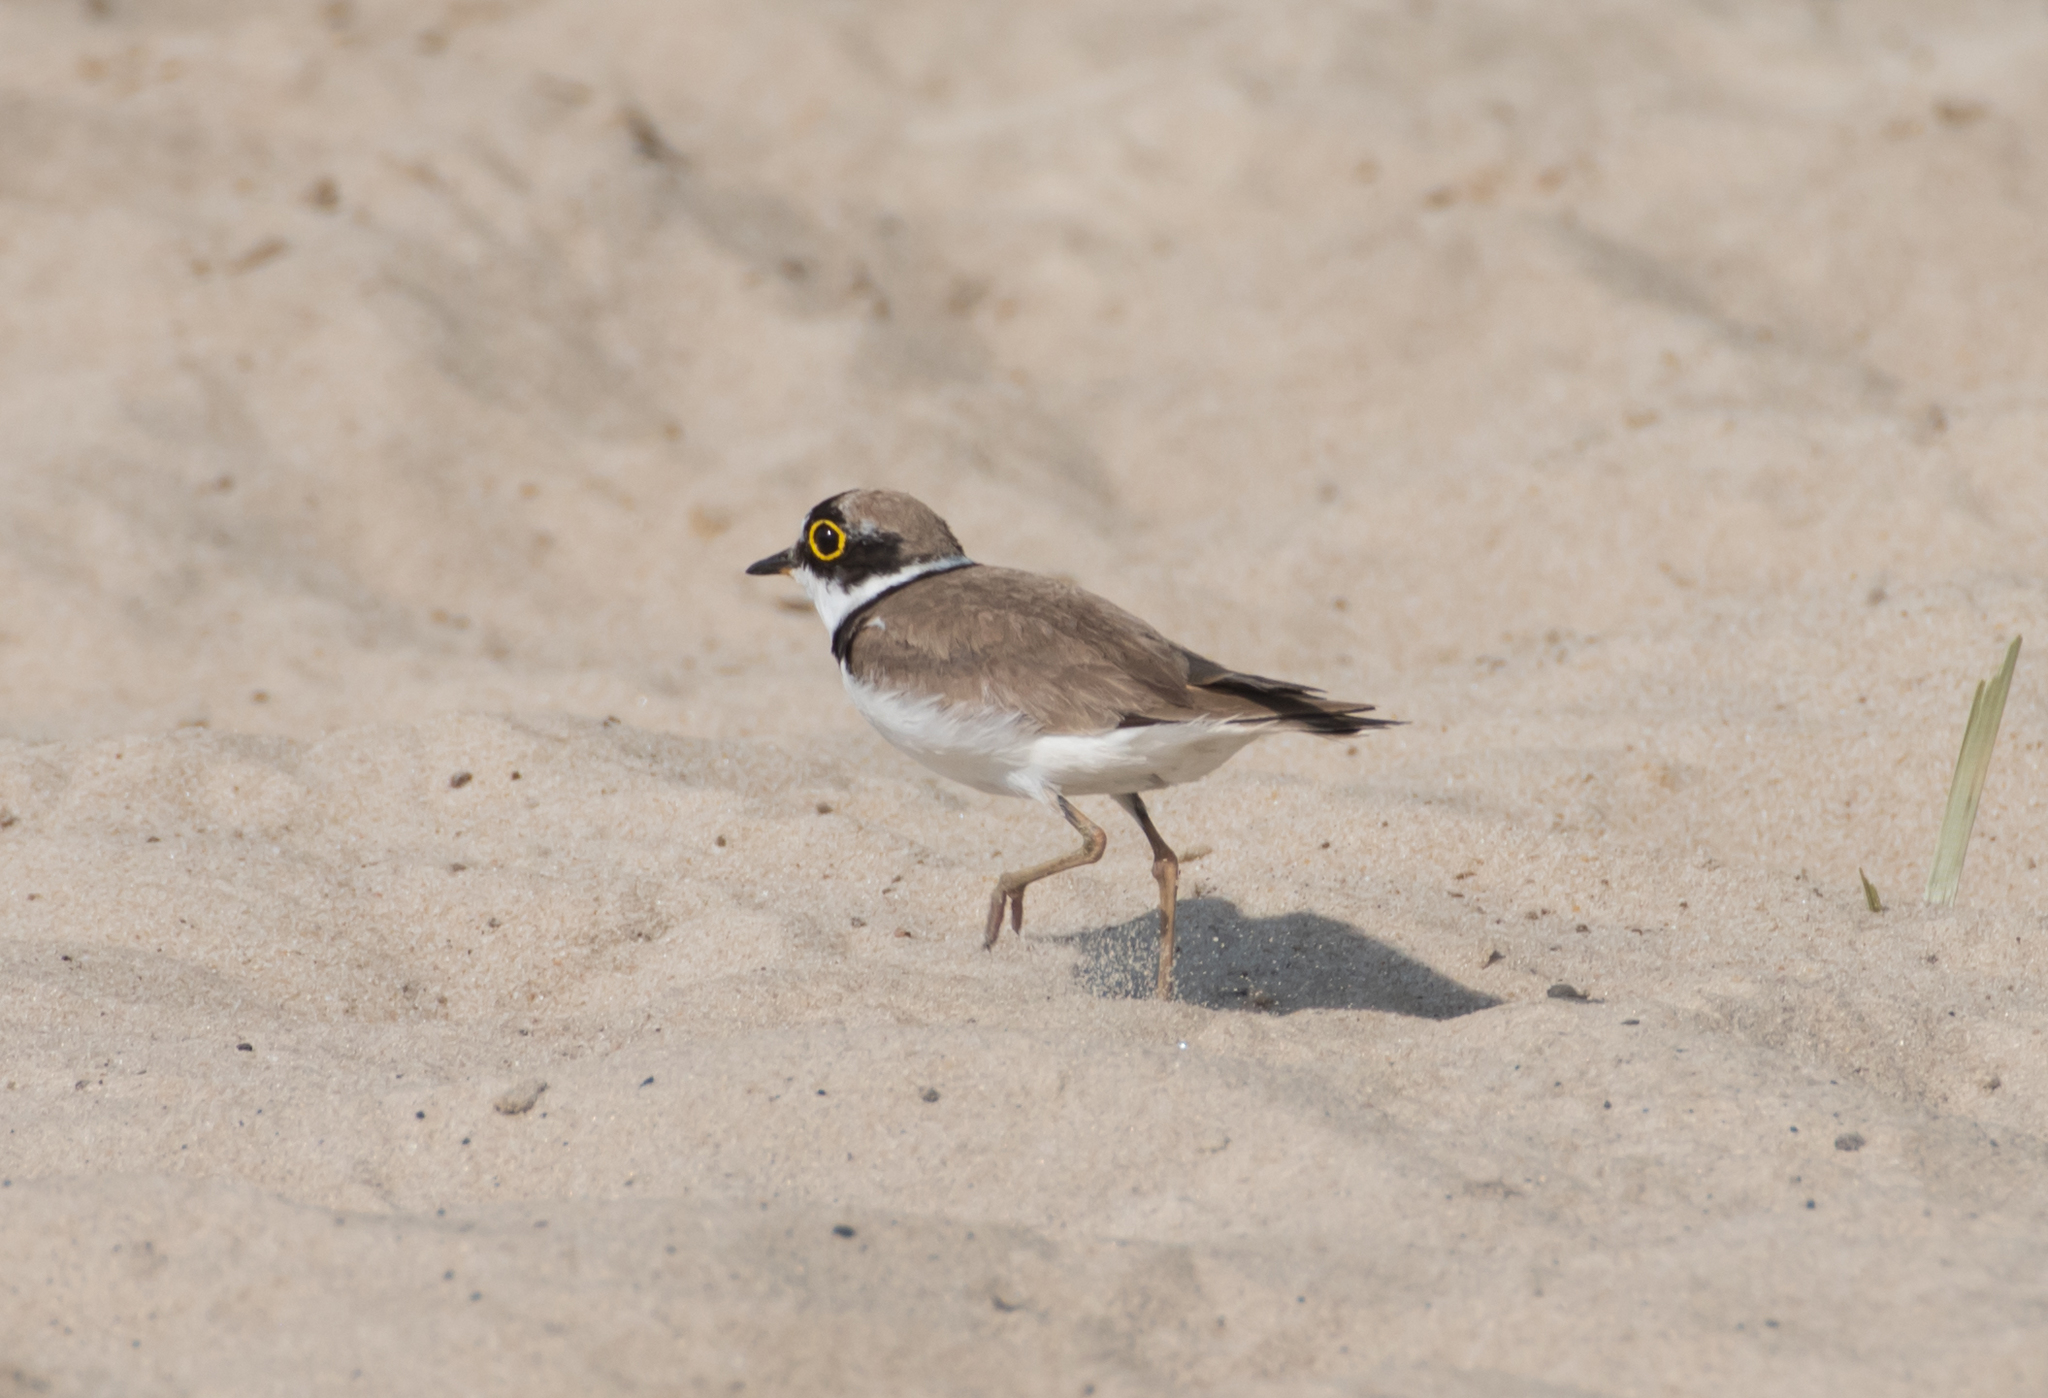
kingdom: Animalia
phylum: Chordata
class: Aves
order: Charadriiformes
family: Charadriidae
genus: Charadrius
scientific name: Charadrius dubius
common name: Little ringed plover
